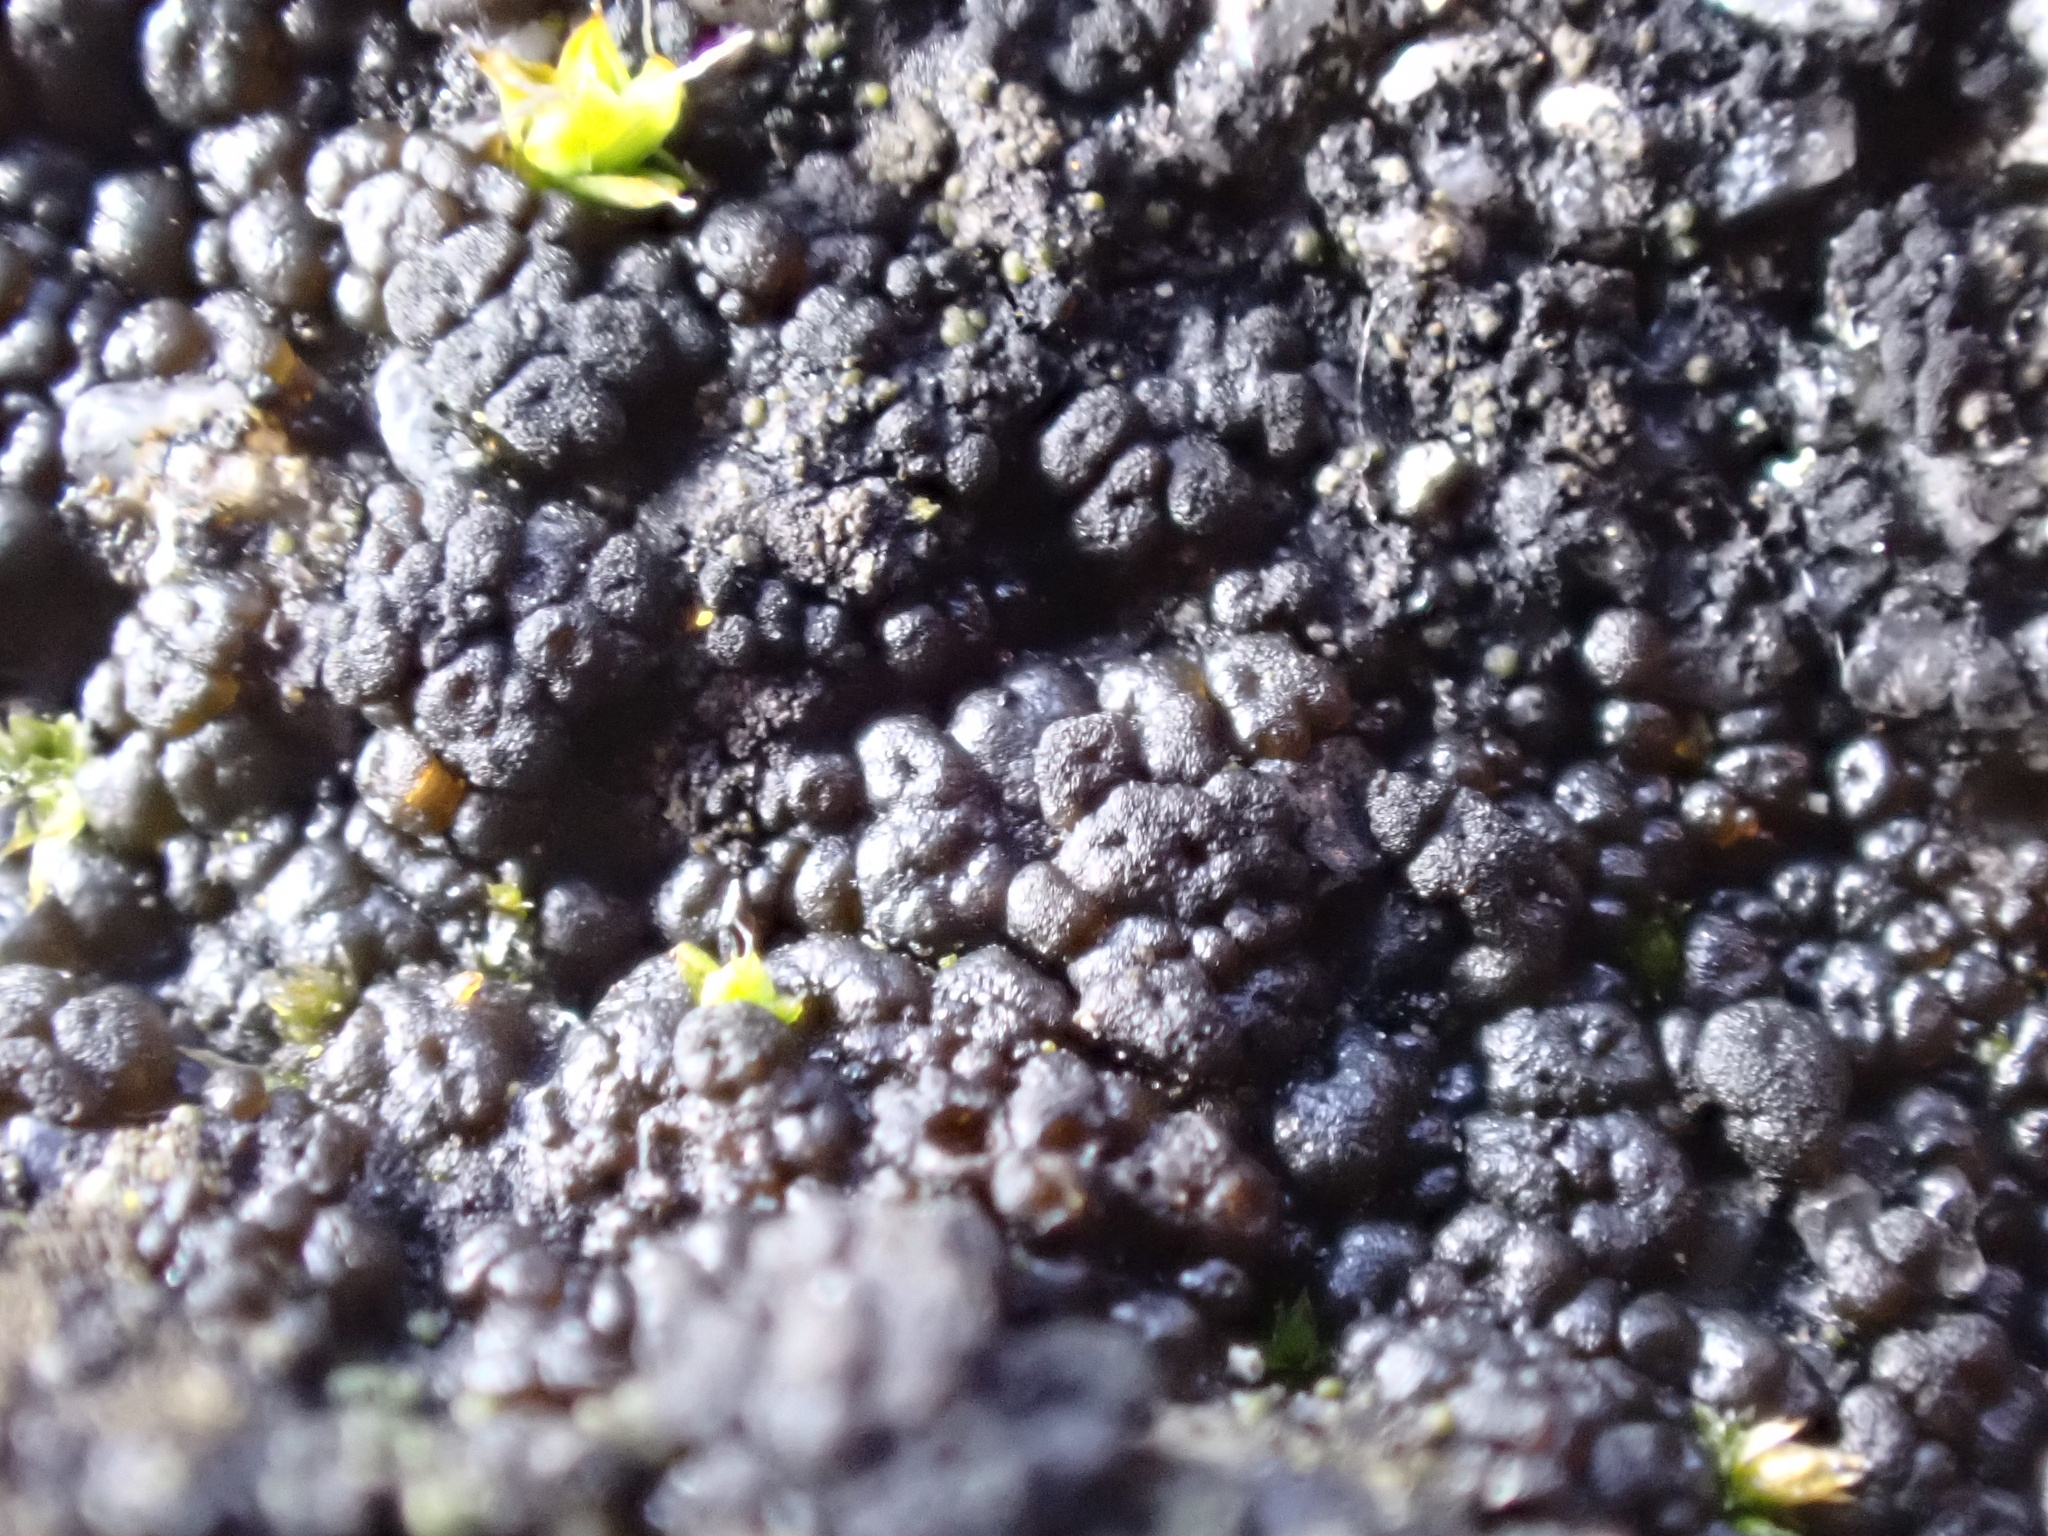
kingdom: Fungi
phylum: Ascomycota
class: Lichinomycetes
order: Lichinales
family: Lichinaceae
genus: Lempholemma
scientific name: Lempholemma polyanthes
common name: Thousand-fruited jelly lichen
